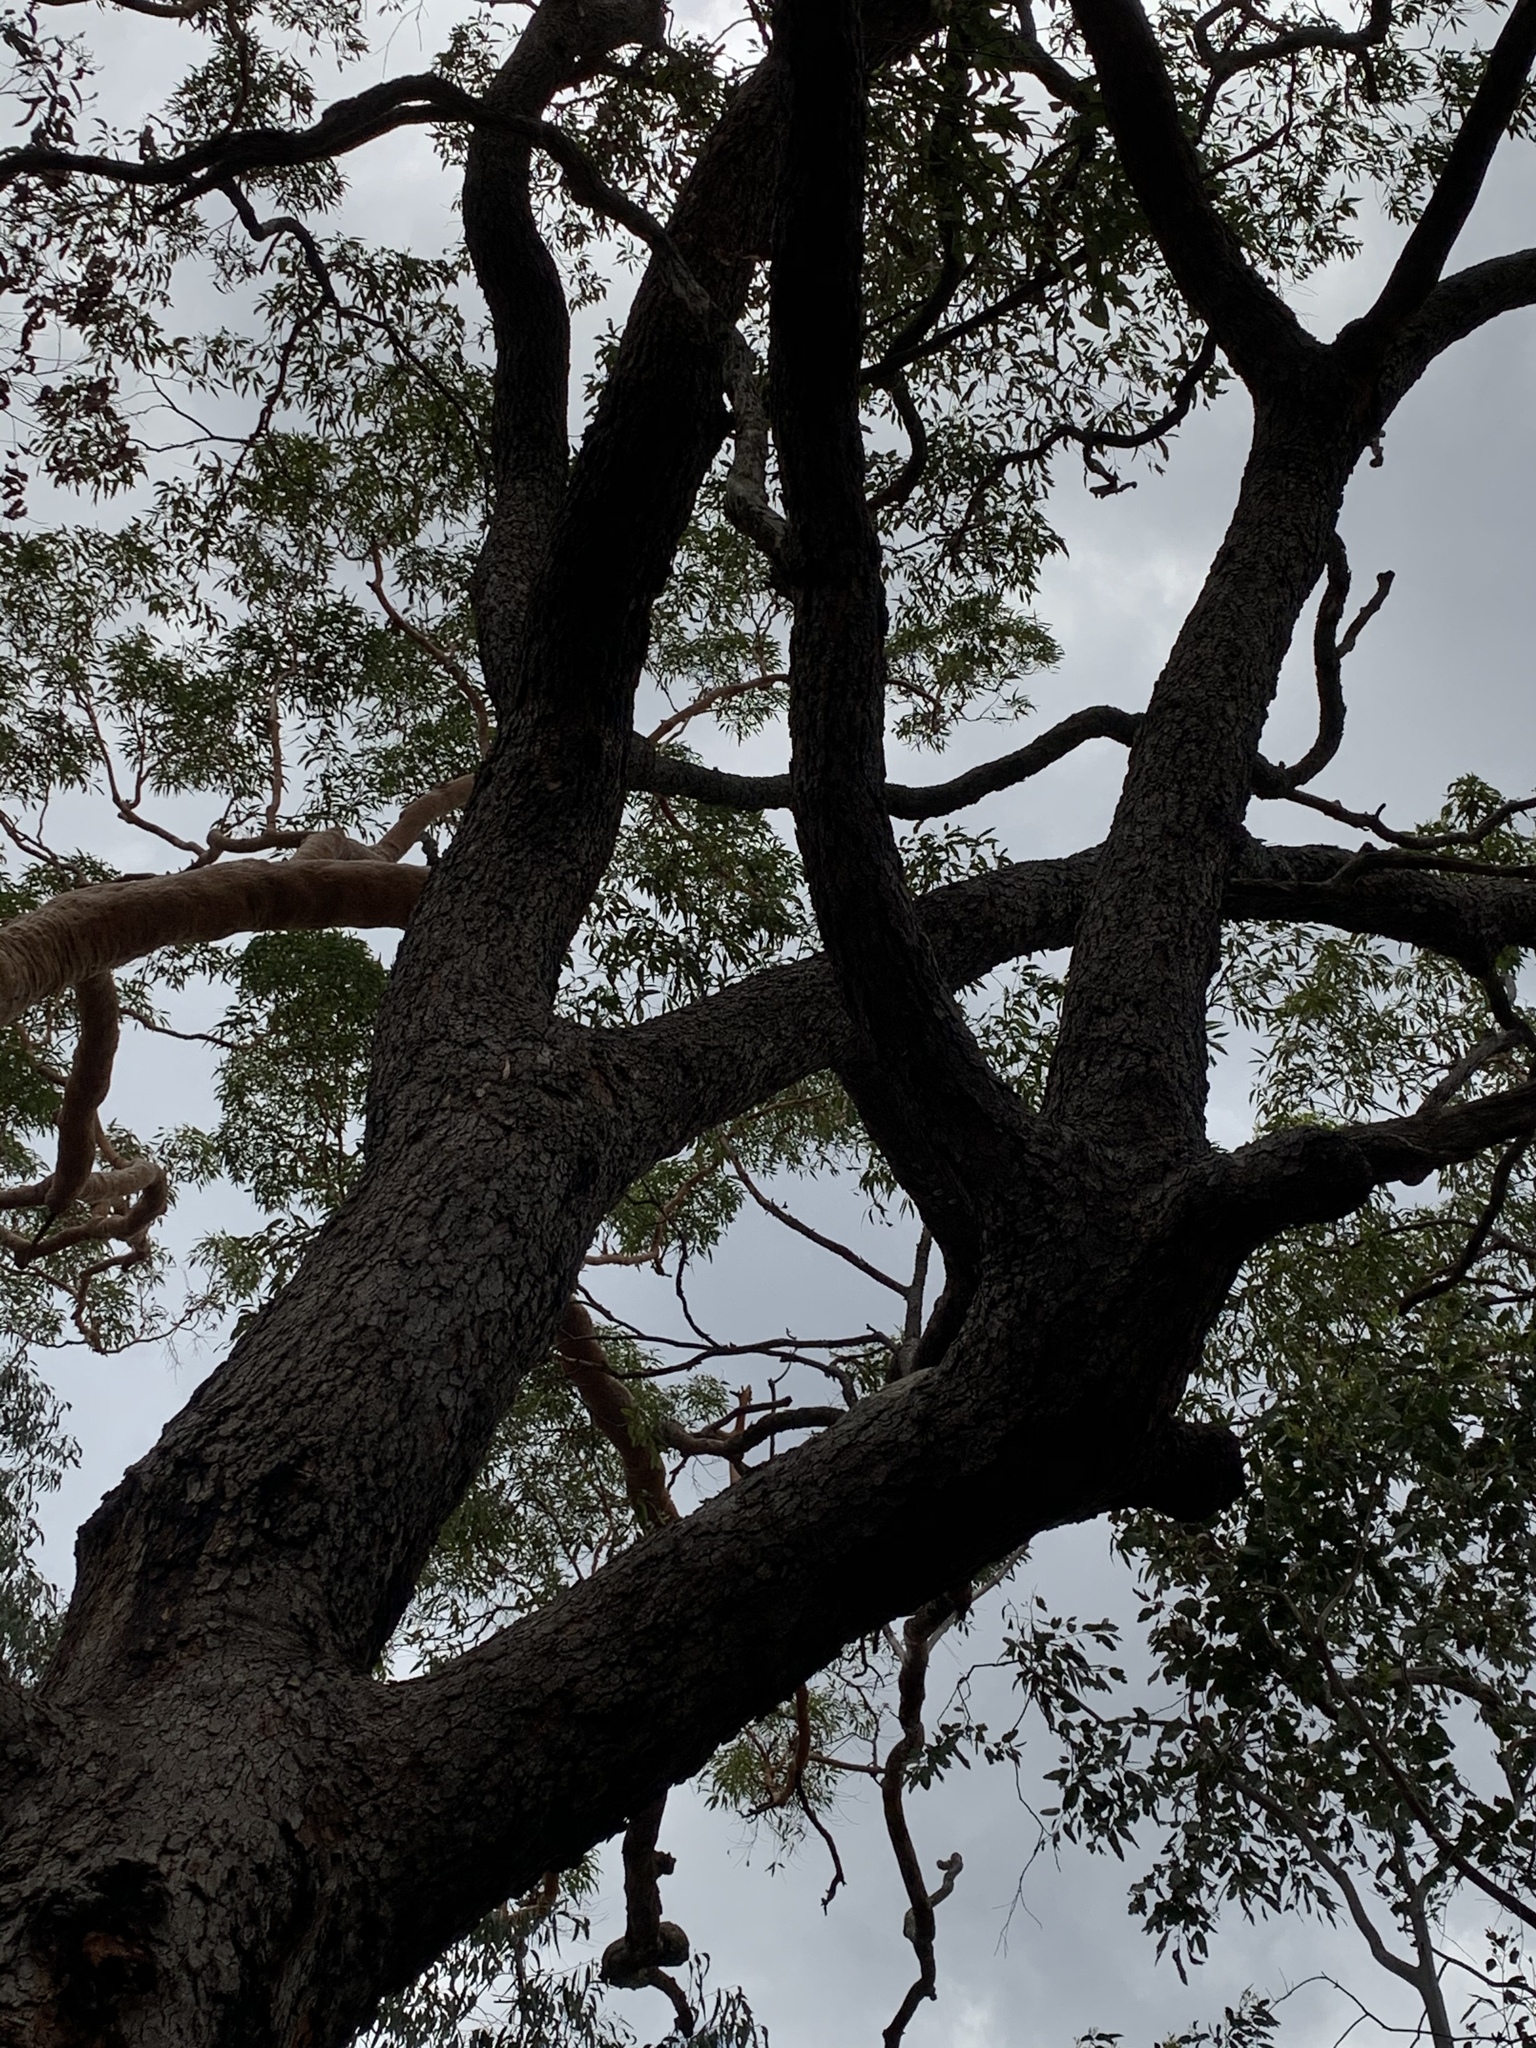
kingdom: Plantae
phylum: Tracheophyta
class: Magnoliopsida
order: Myrtales
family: Myrtaceae
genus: Corymbia
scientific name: Corymbia gummifera
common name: Red bloodwood
